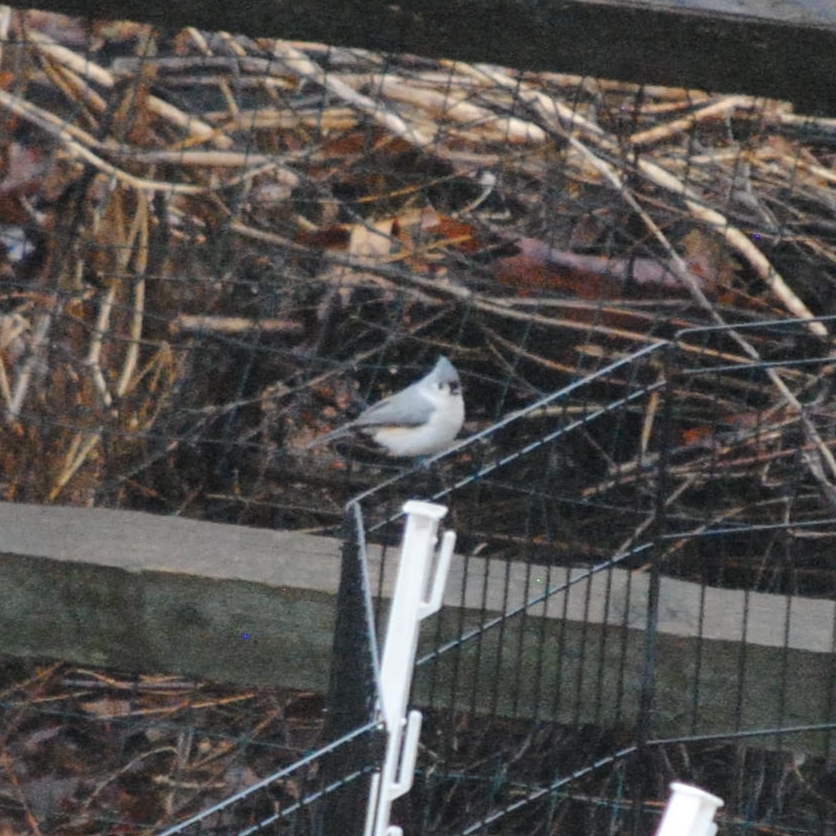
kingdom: Animalia
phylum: Chordata
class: Aves
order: Passeriformes
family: Paridae
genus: Baeolophus
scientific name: Baeolophus bicolor
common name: Tufted titmouse
